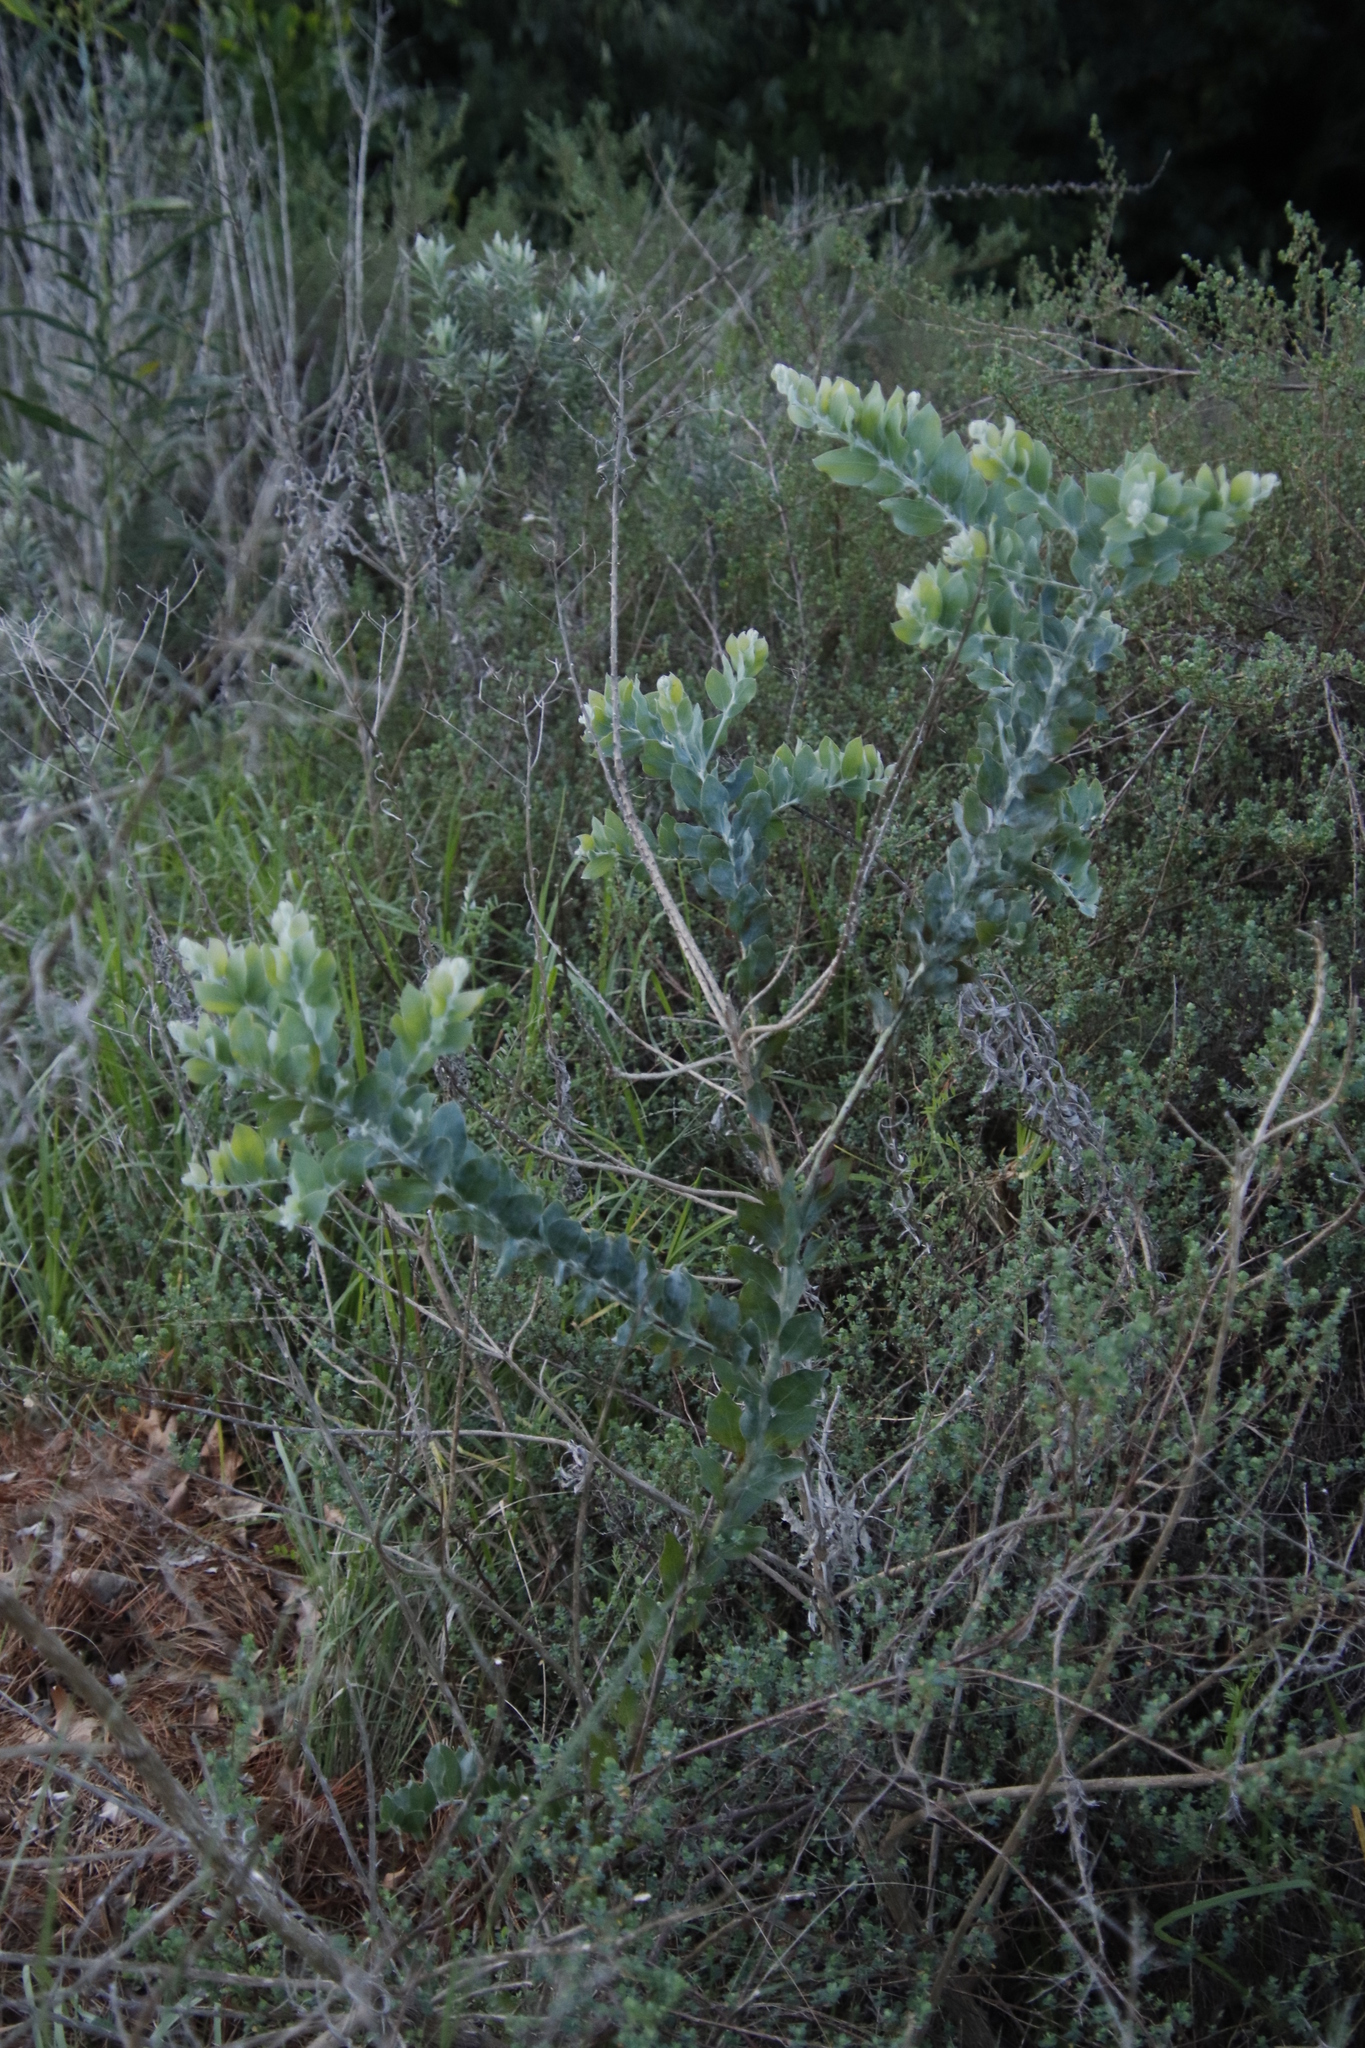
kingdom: Plantae
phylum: Tracheophyta
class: Magnoliopsida
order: Fabales
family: Fabaceae
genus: Acacia
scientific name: Acacia podalyriifolia
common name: Pearl wattle
